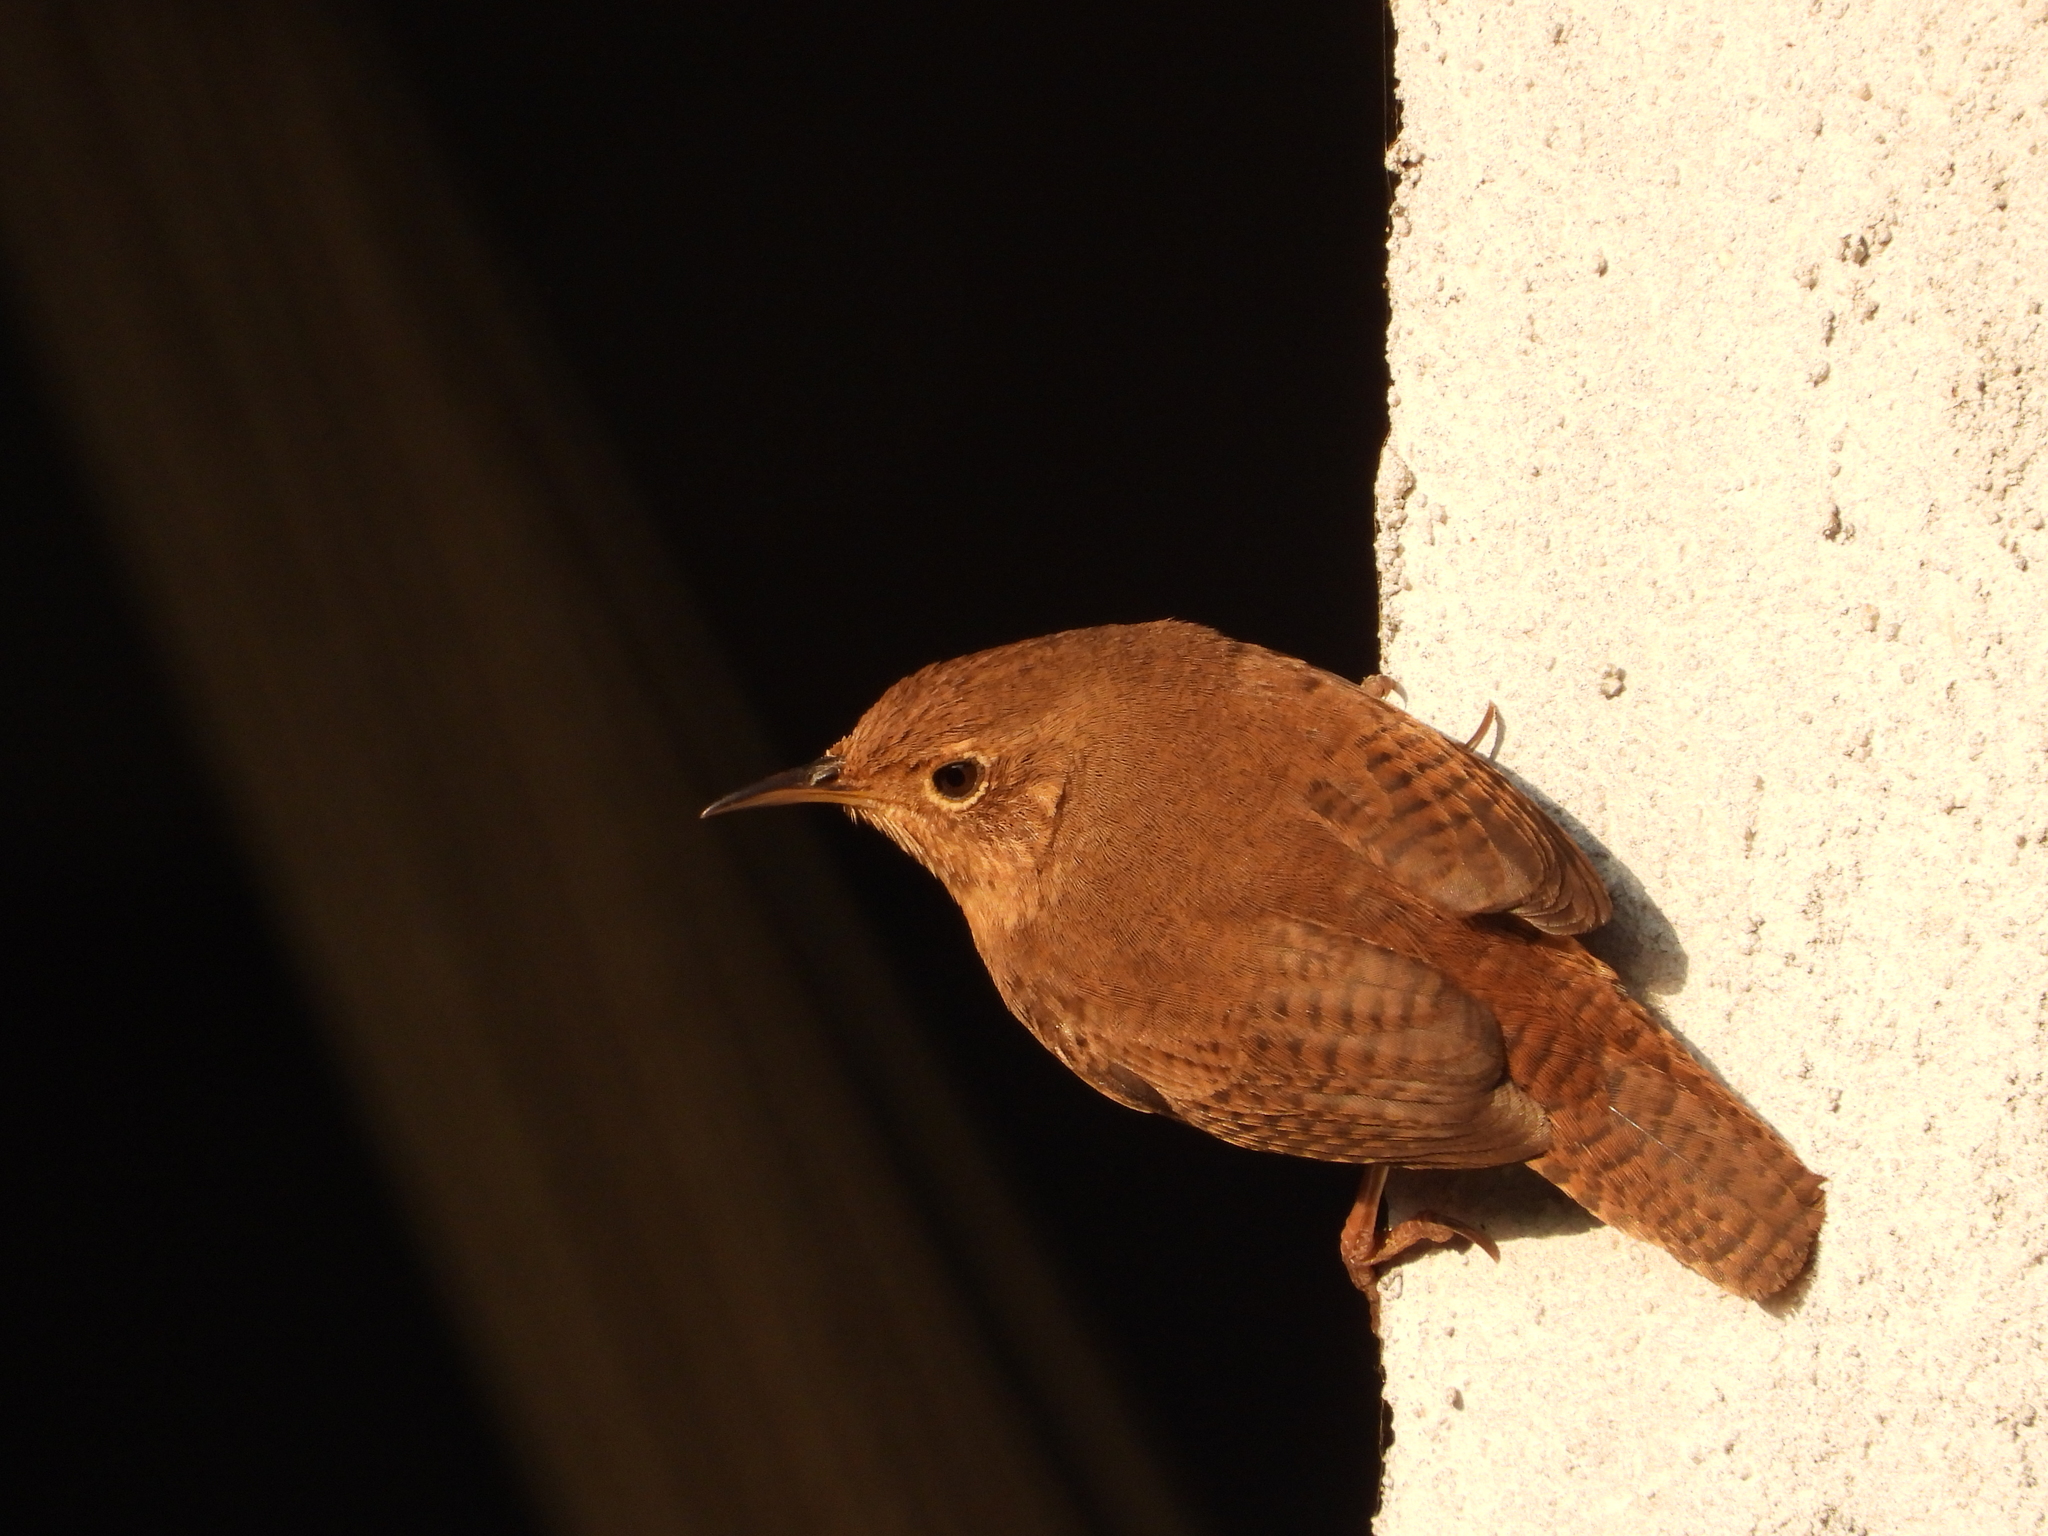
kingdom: Animalia
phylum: Chordata
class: Aves
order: Passeriformes
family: Troglodytidae
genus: Troglodytes
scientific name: Troglodytes aedon
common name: House wren
